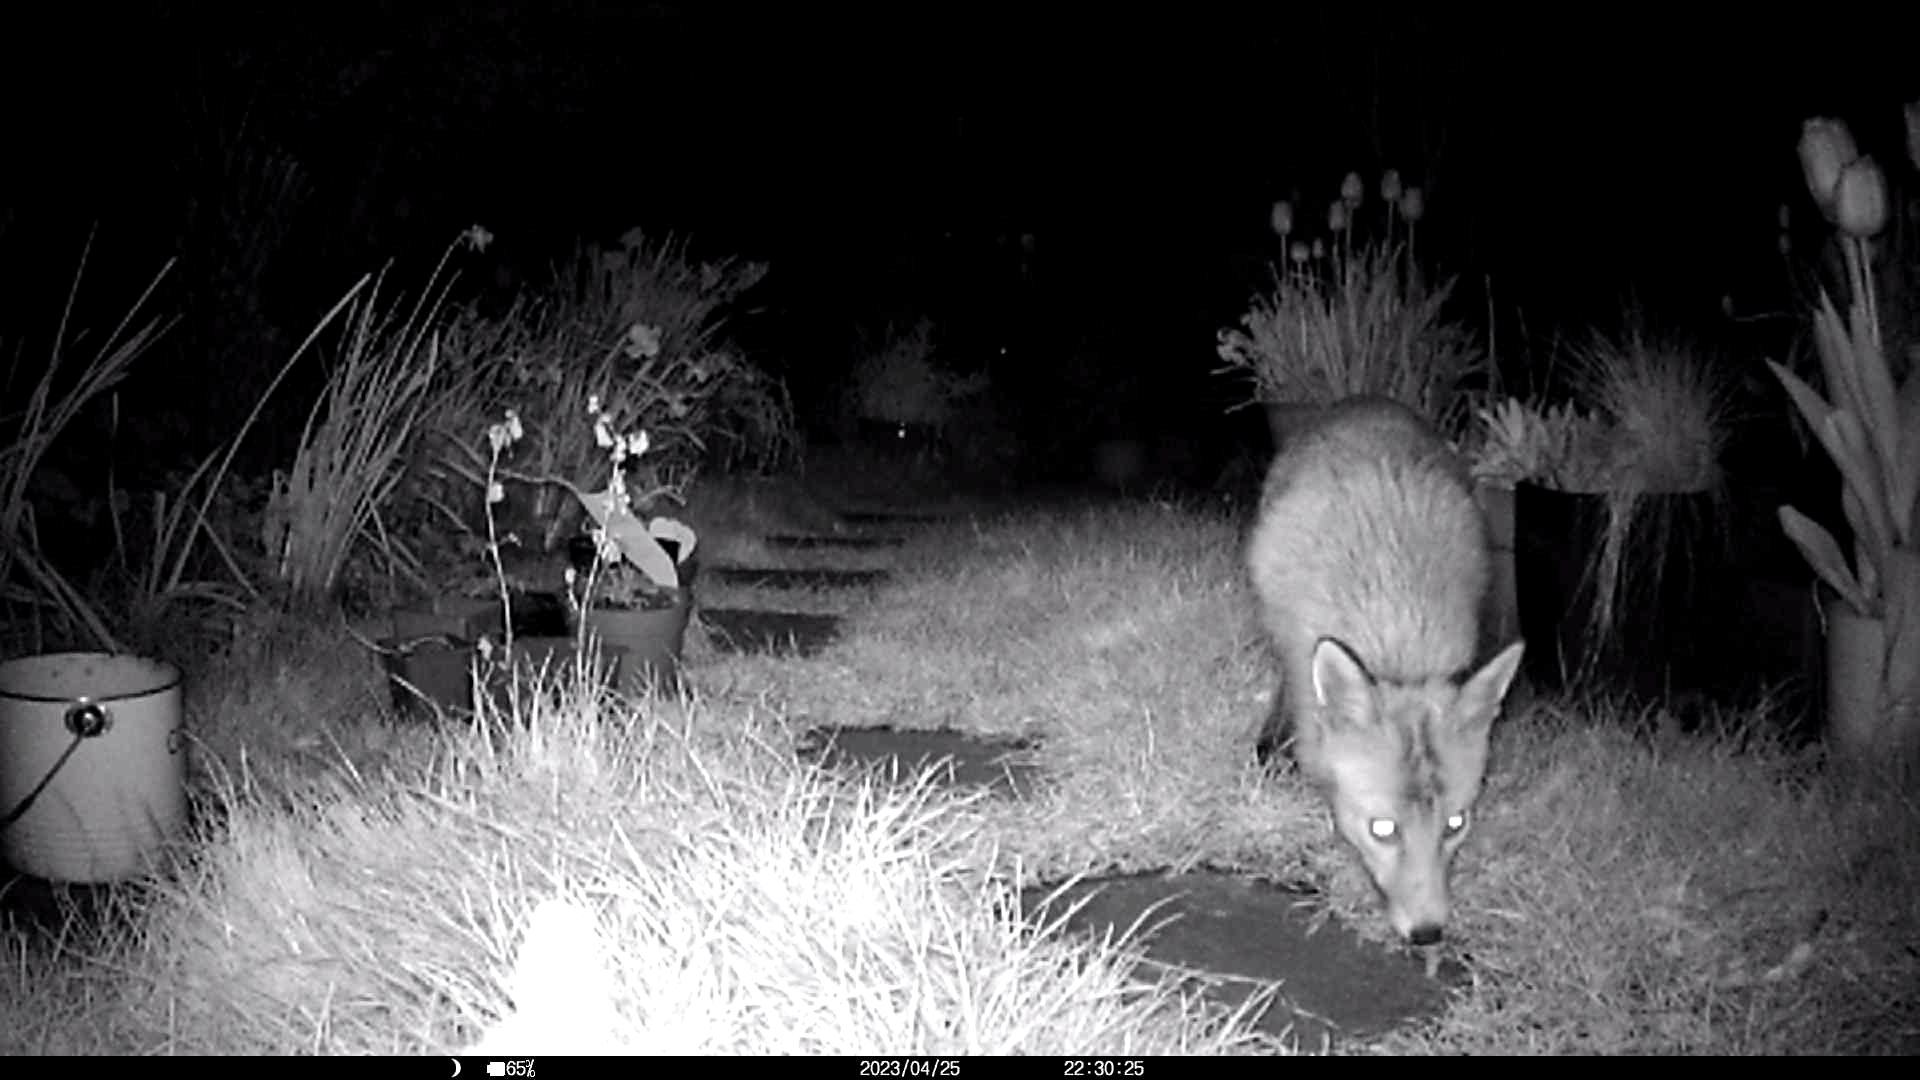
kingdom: Animalia
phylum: Chordata
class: Mammalia
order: Carnivora
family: Canidae
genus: Vulpes
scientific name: Vulpes vulpes
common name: Red fox
